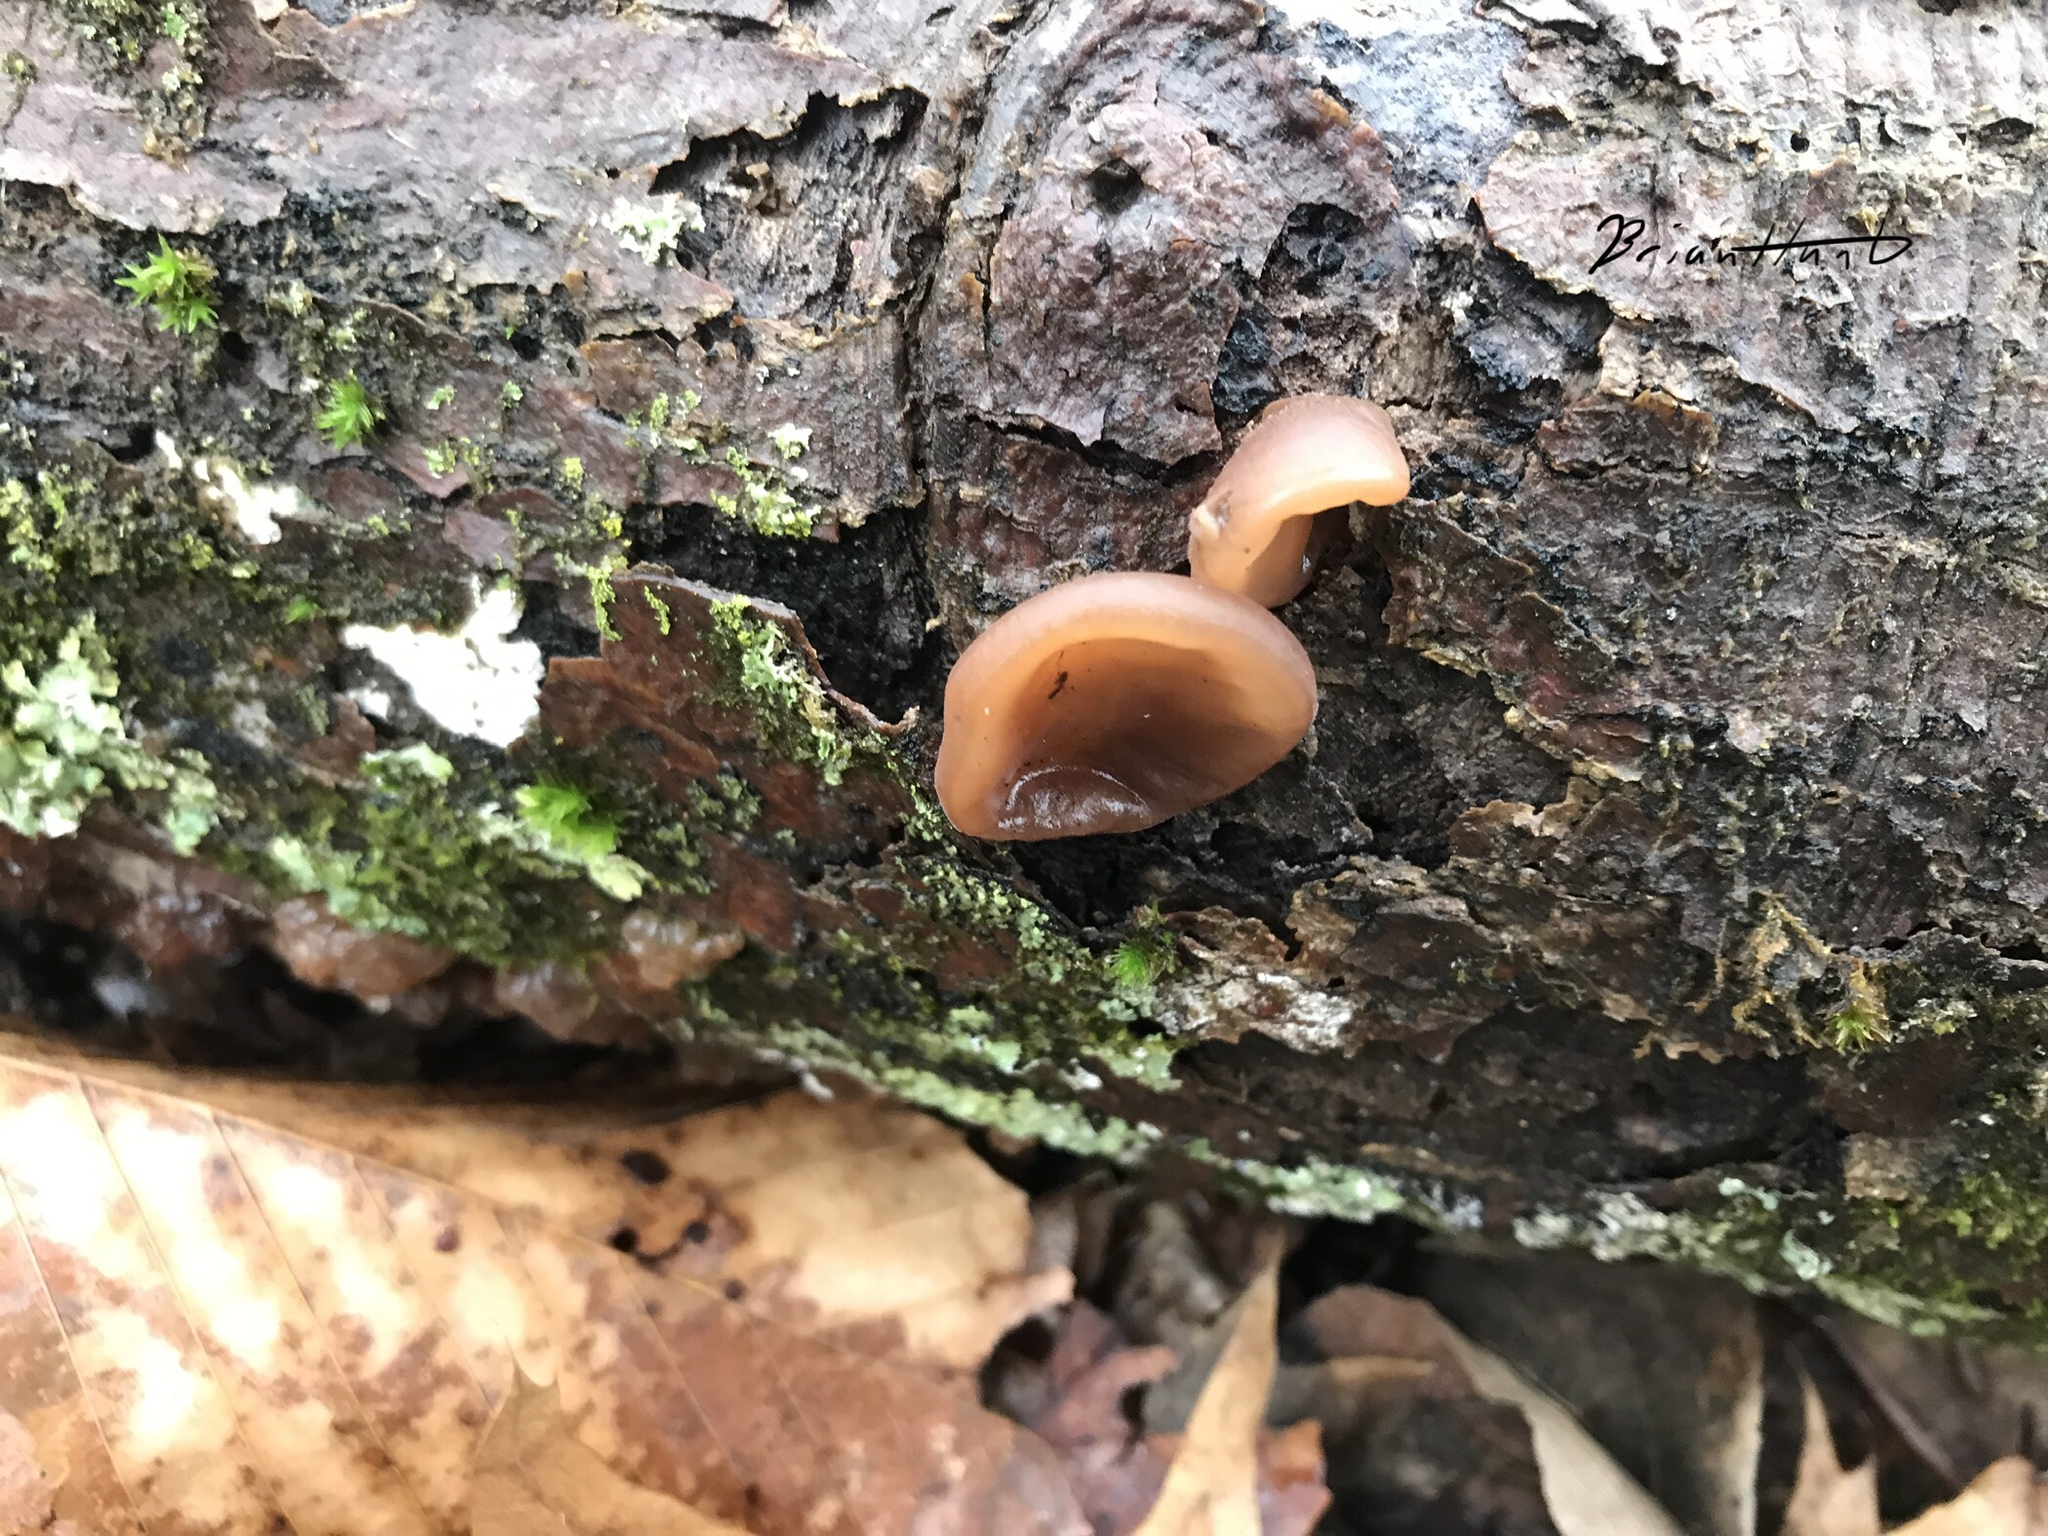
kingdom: Fungi
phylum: Basidiomycota
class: Agaricomycetes
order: Auriculariales
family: Auriculariaceae
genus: Auricularia
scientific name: Auricularia angiospermarum
